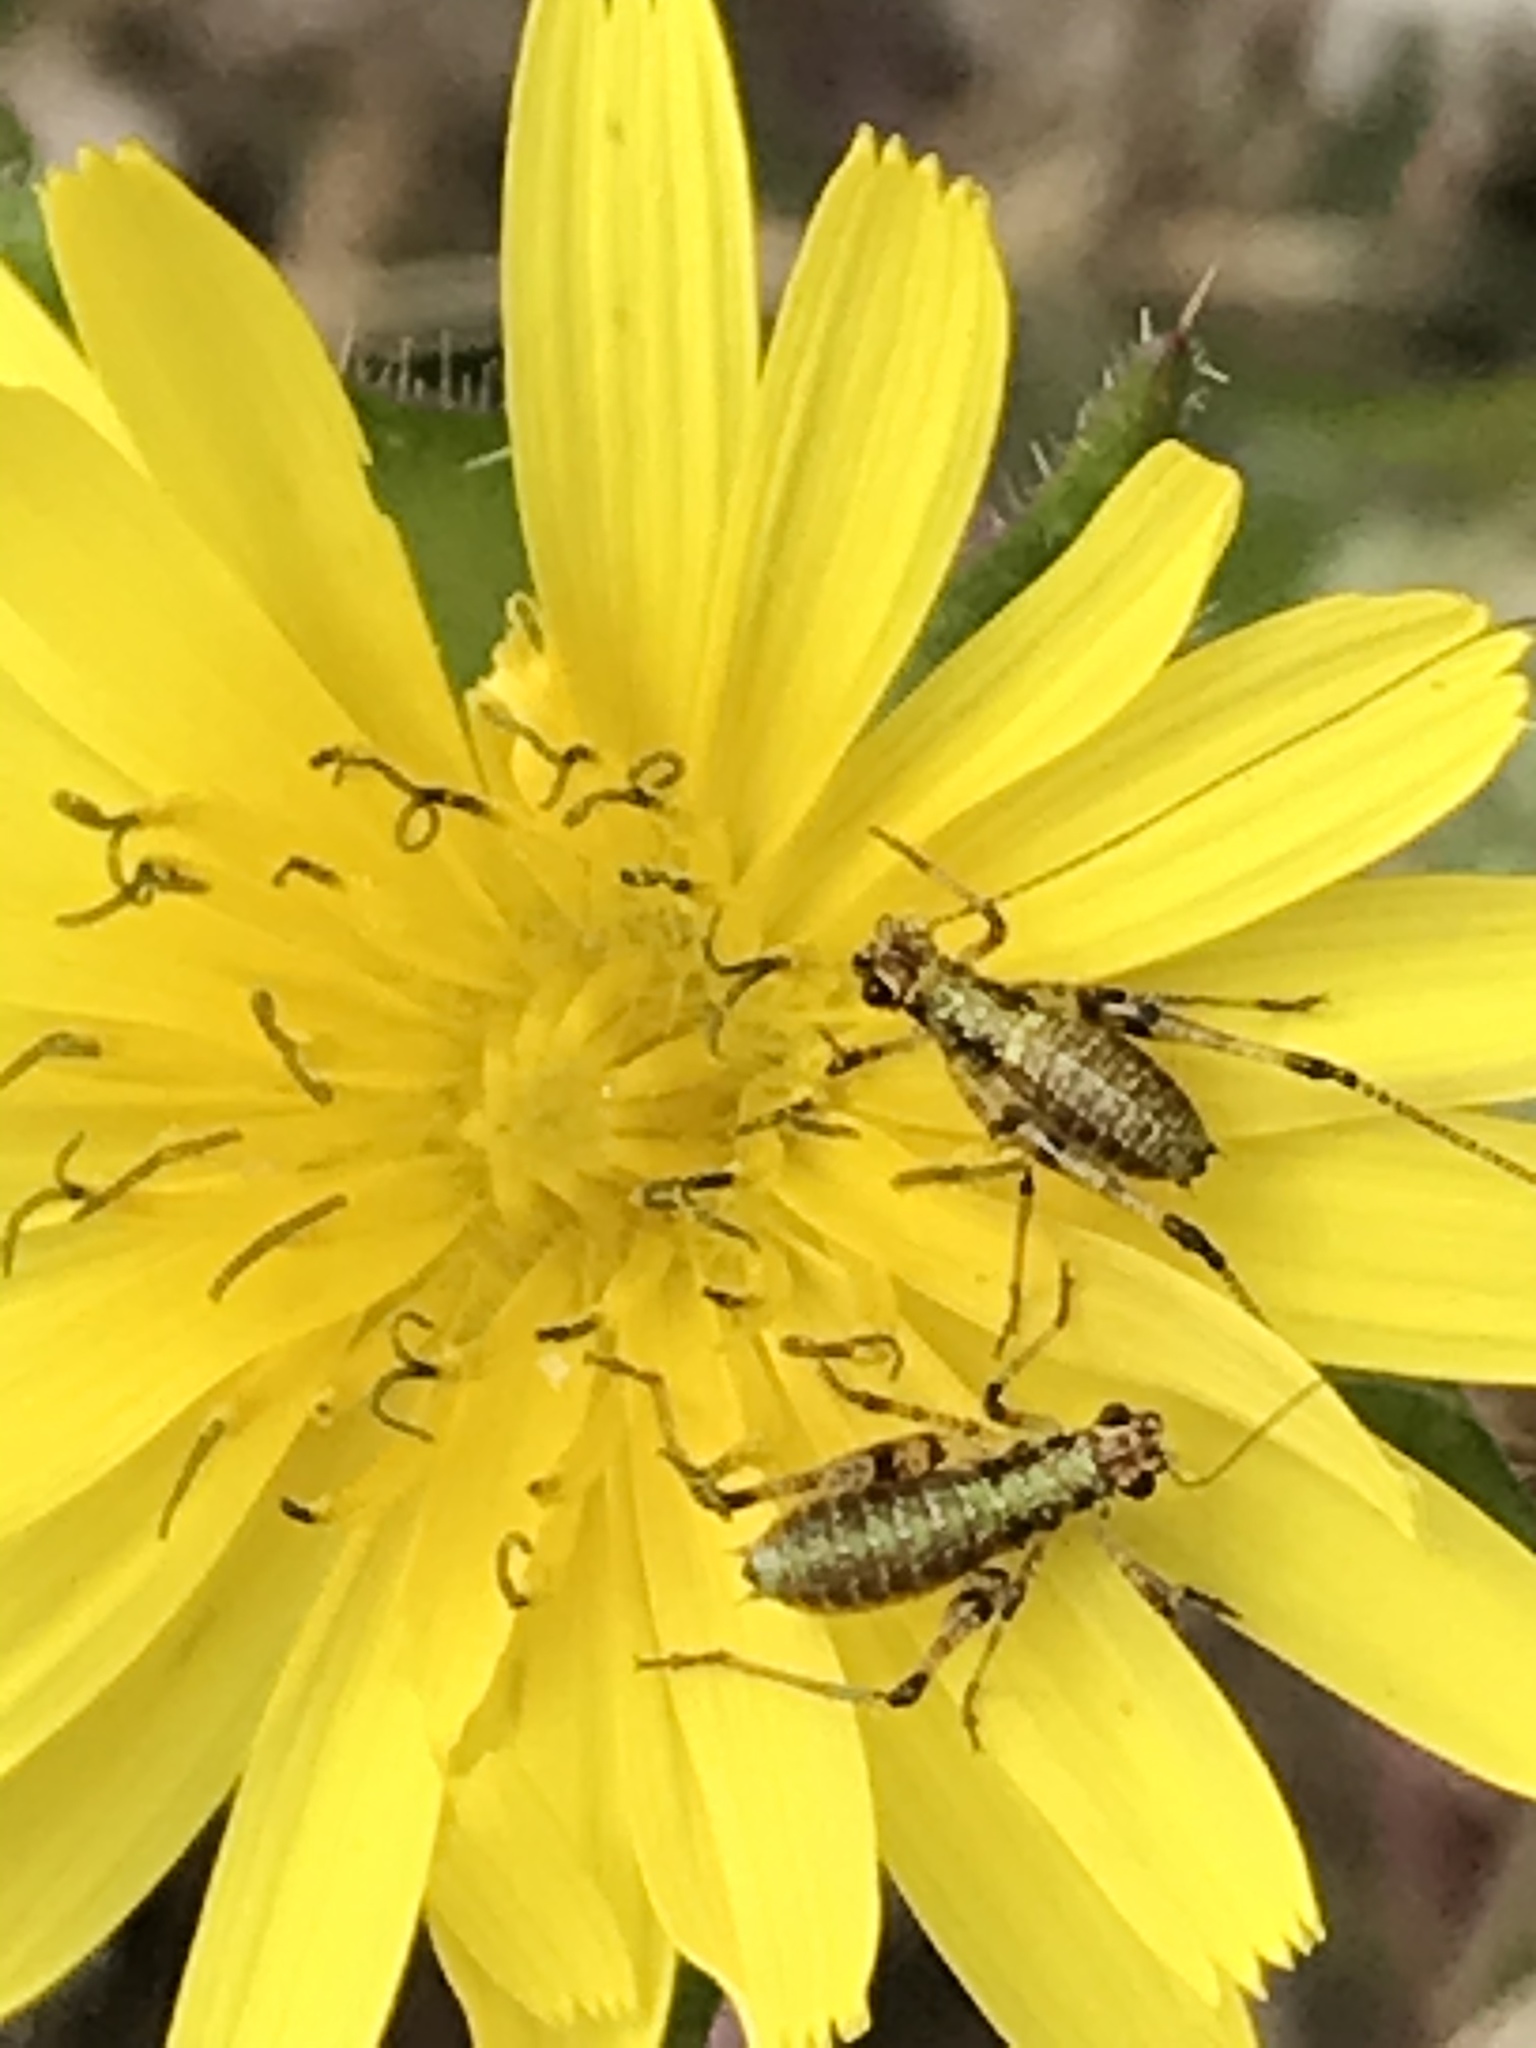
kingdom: Animalia
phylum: Arthropoda
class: Insecta
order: Orthoptera
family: Tettigoniidae
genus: Phaneroptera
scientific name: Phaneroptera nana
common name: Southern sickle bush-cricket
